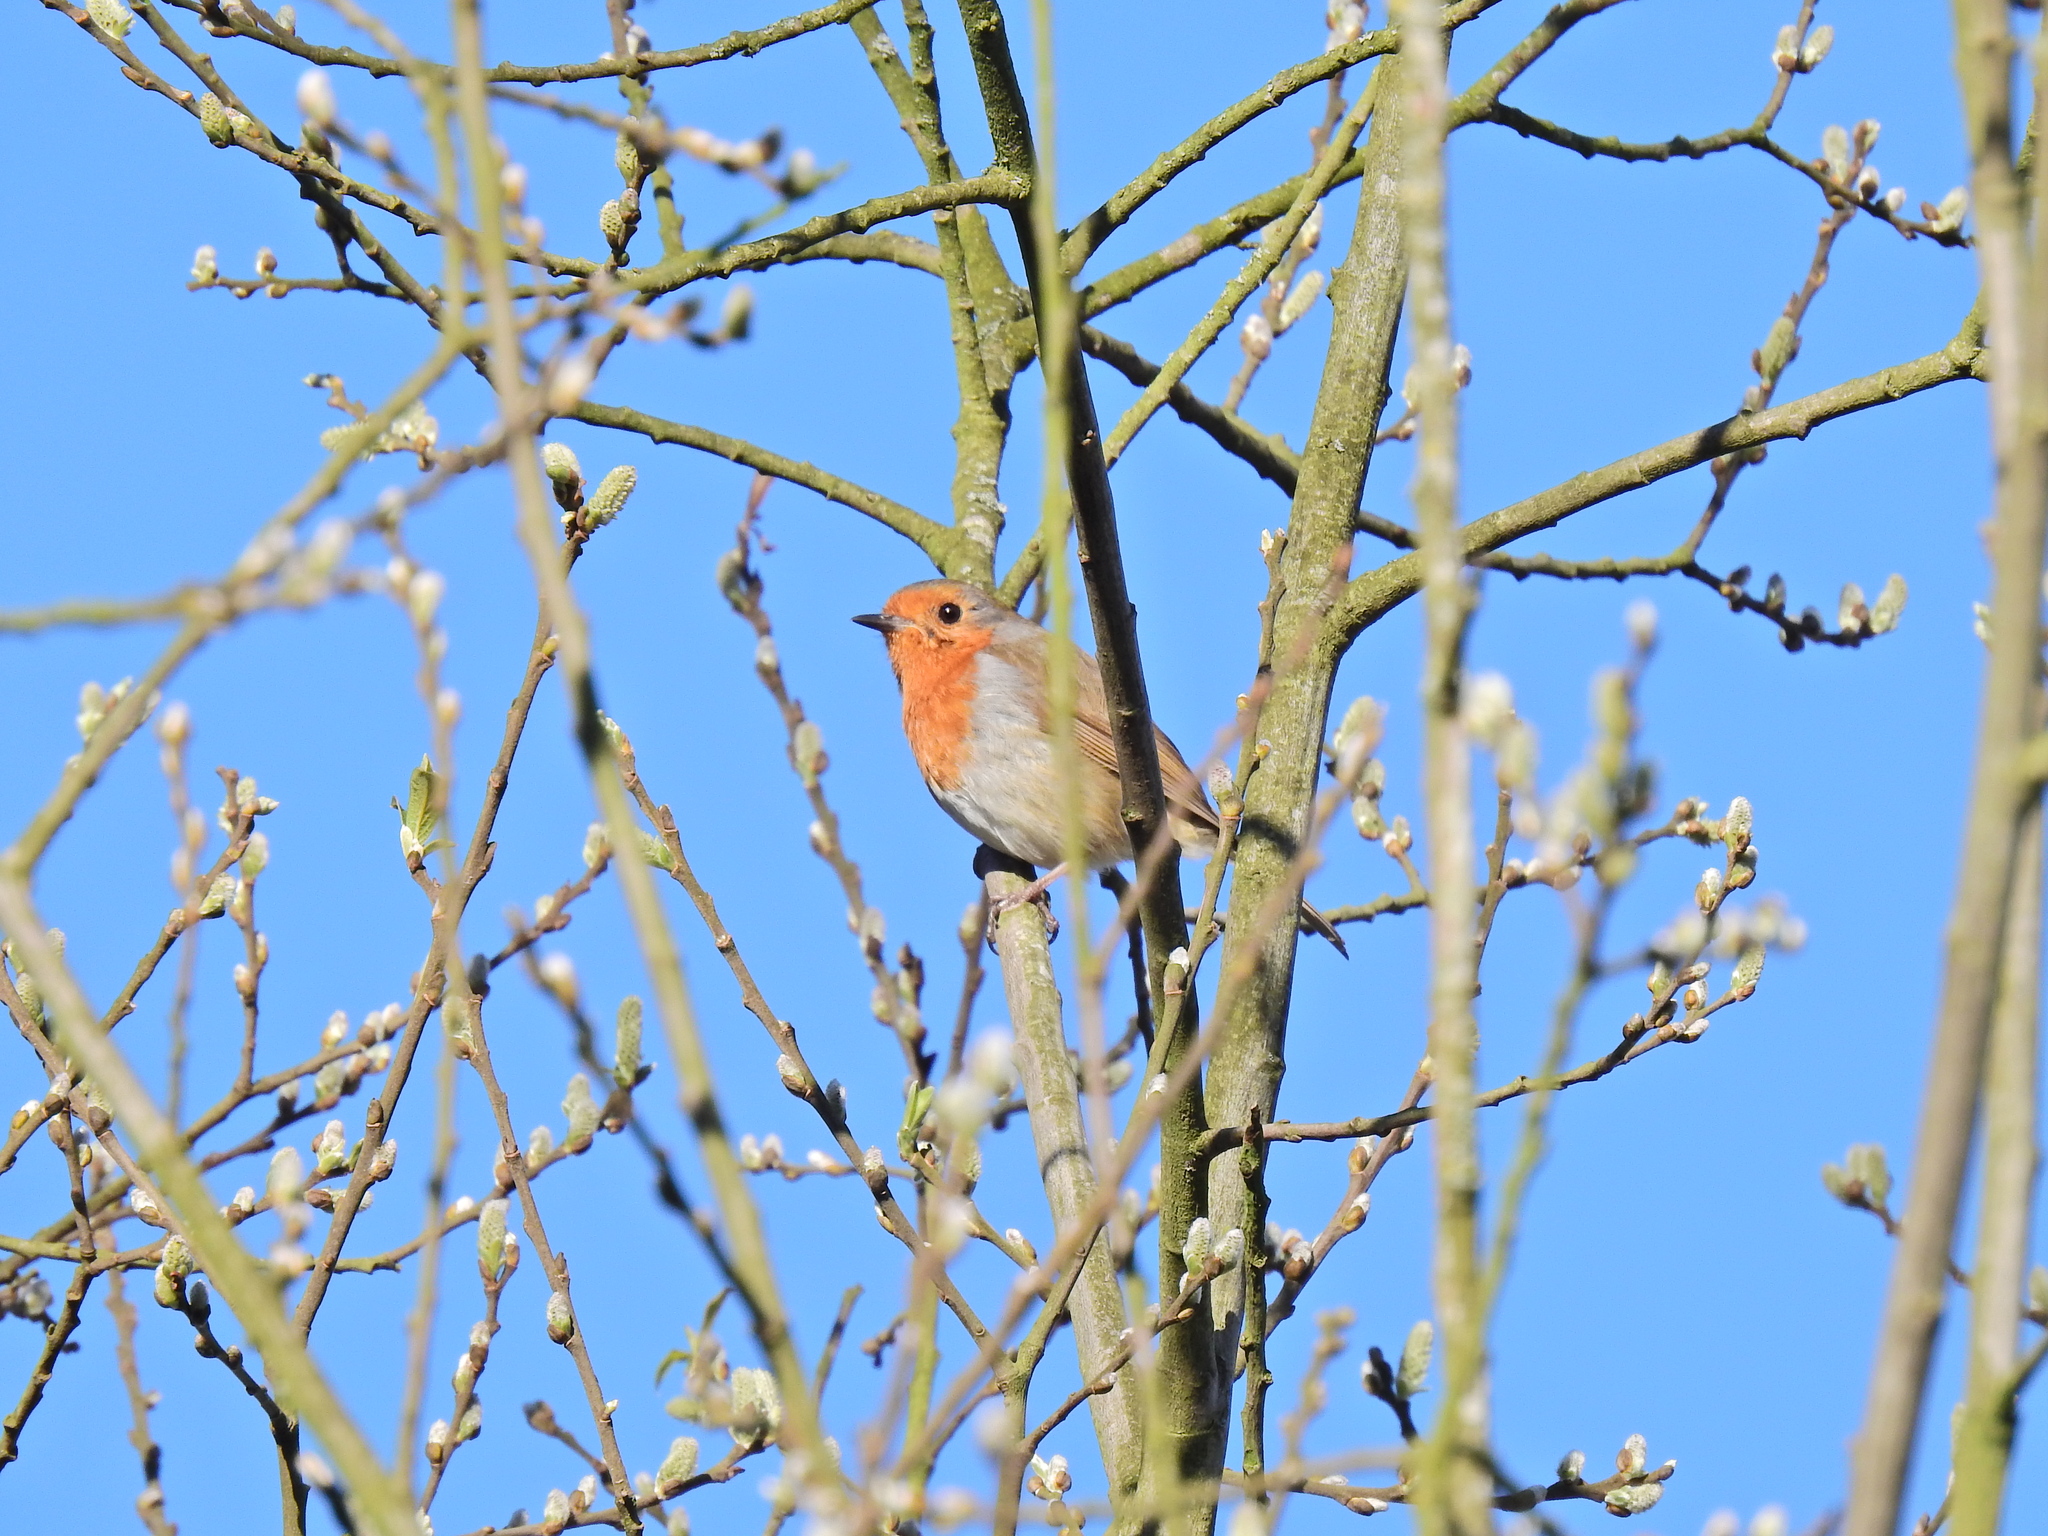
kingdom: Animalia
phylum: Chordata
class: Aves
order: Passeriformes
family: Muscicapidae
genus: Erithacus
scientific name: Erithacus rubecula
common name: European robin
